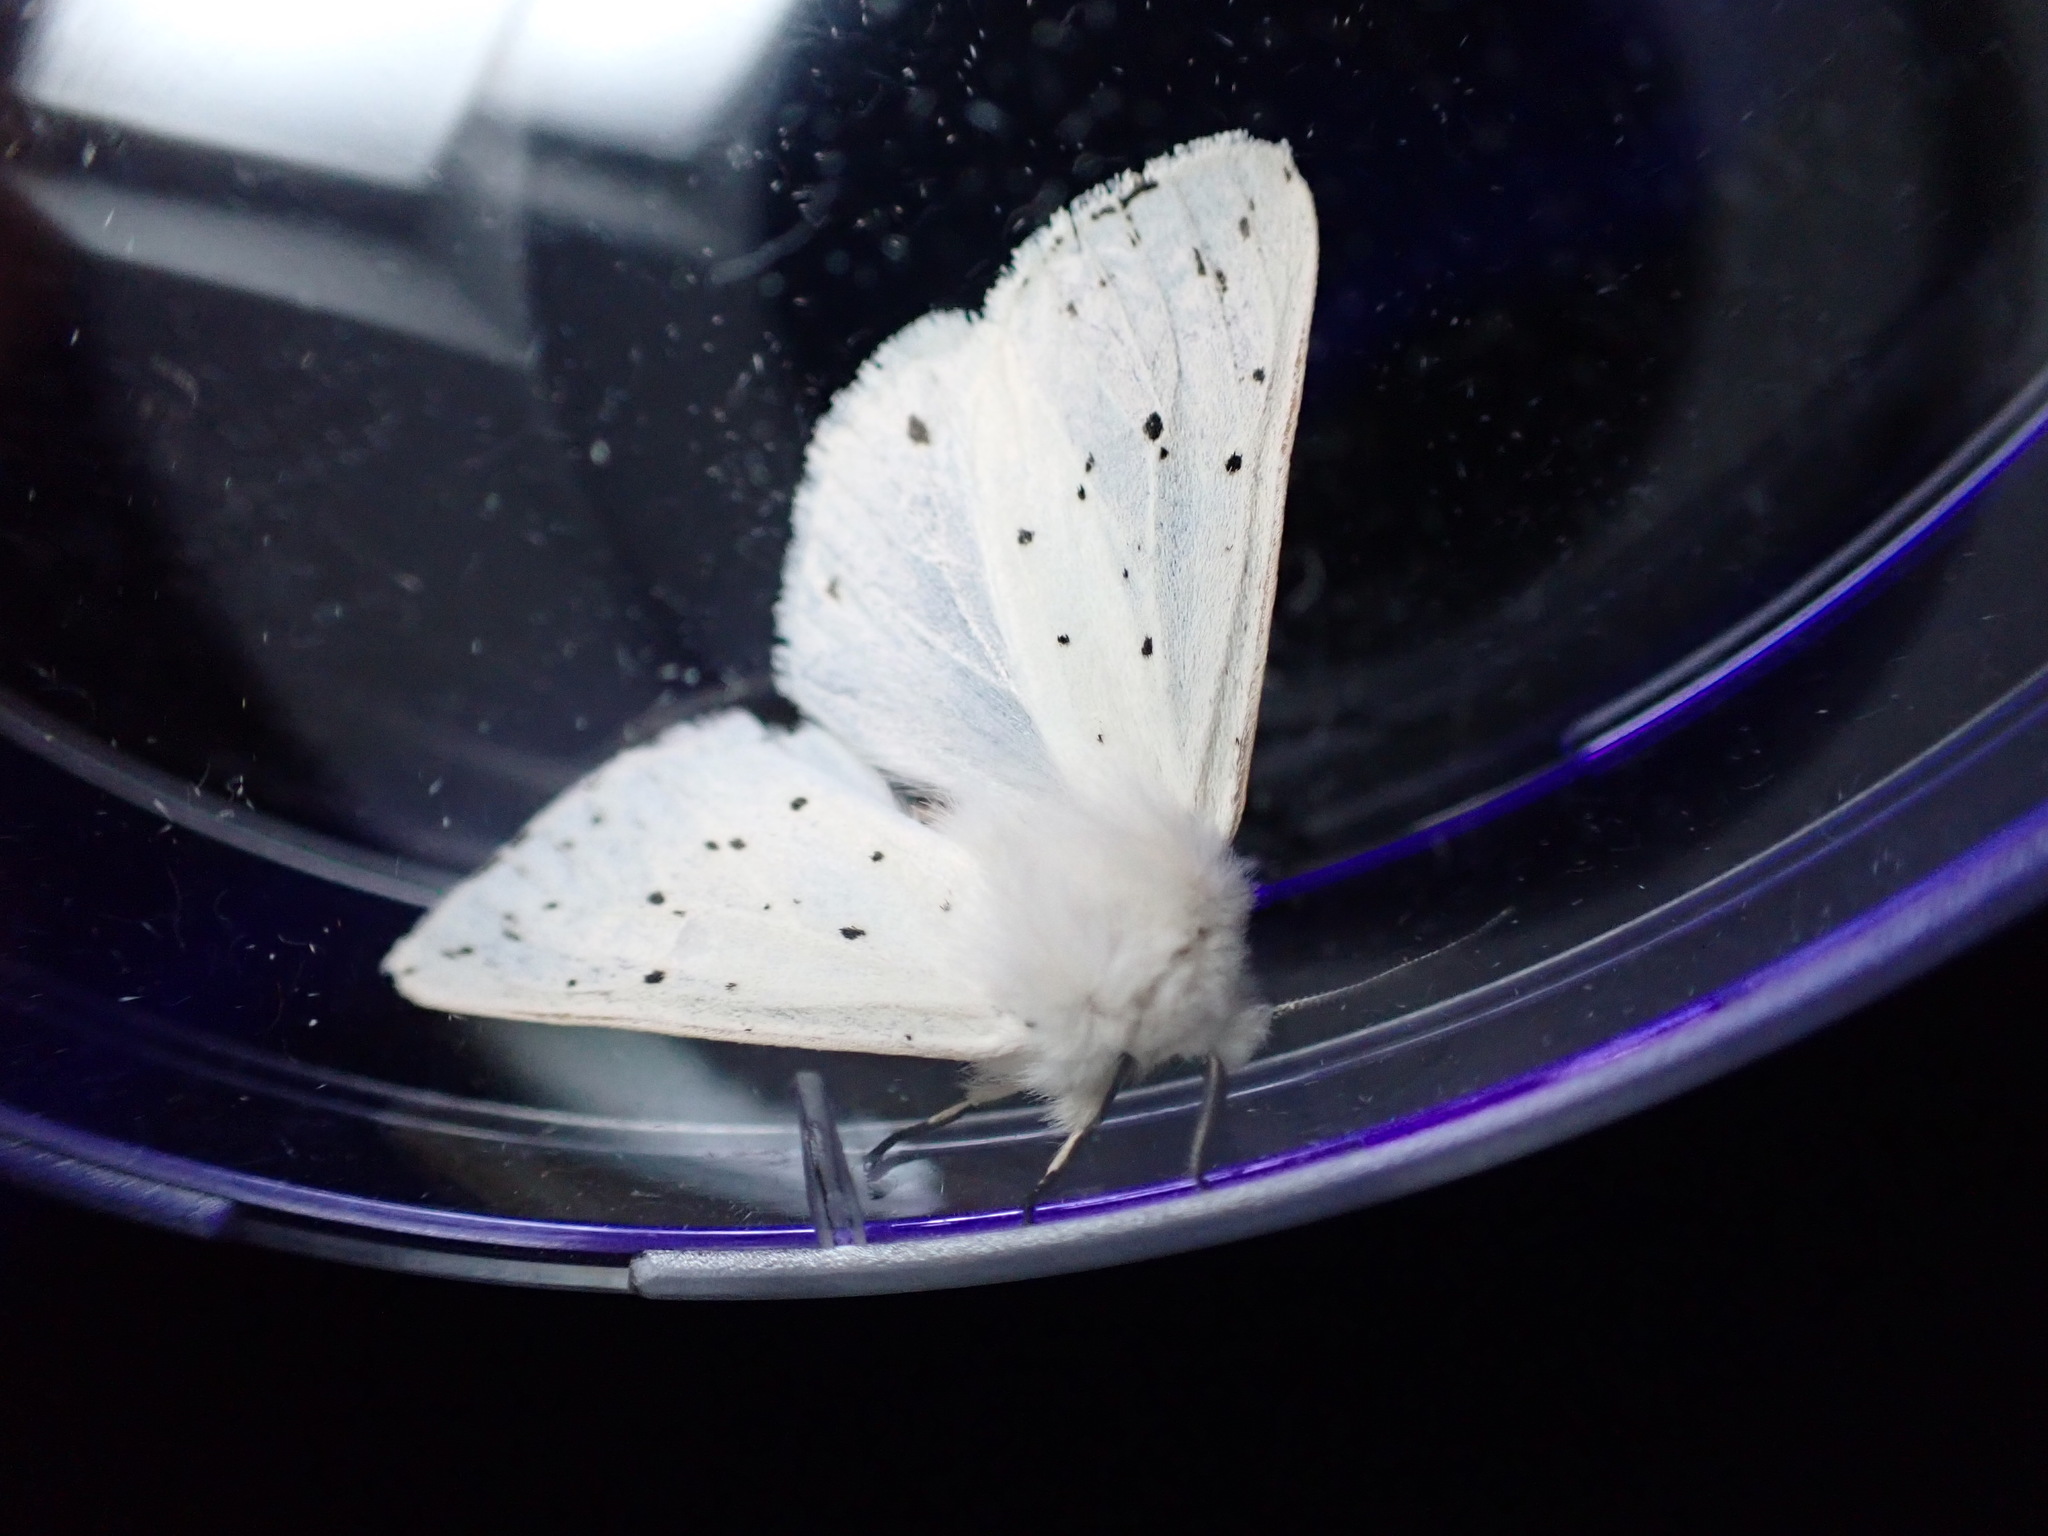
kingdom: Animalia
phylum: Arthropoda
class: Insecta
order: Lepidoptera
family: Erebidae
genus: Spilosoma
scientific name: Spilosoma lubricipeda
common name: White ermine
